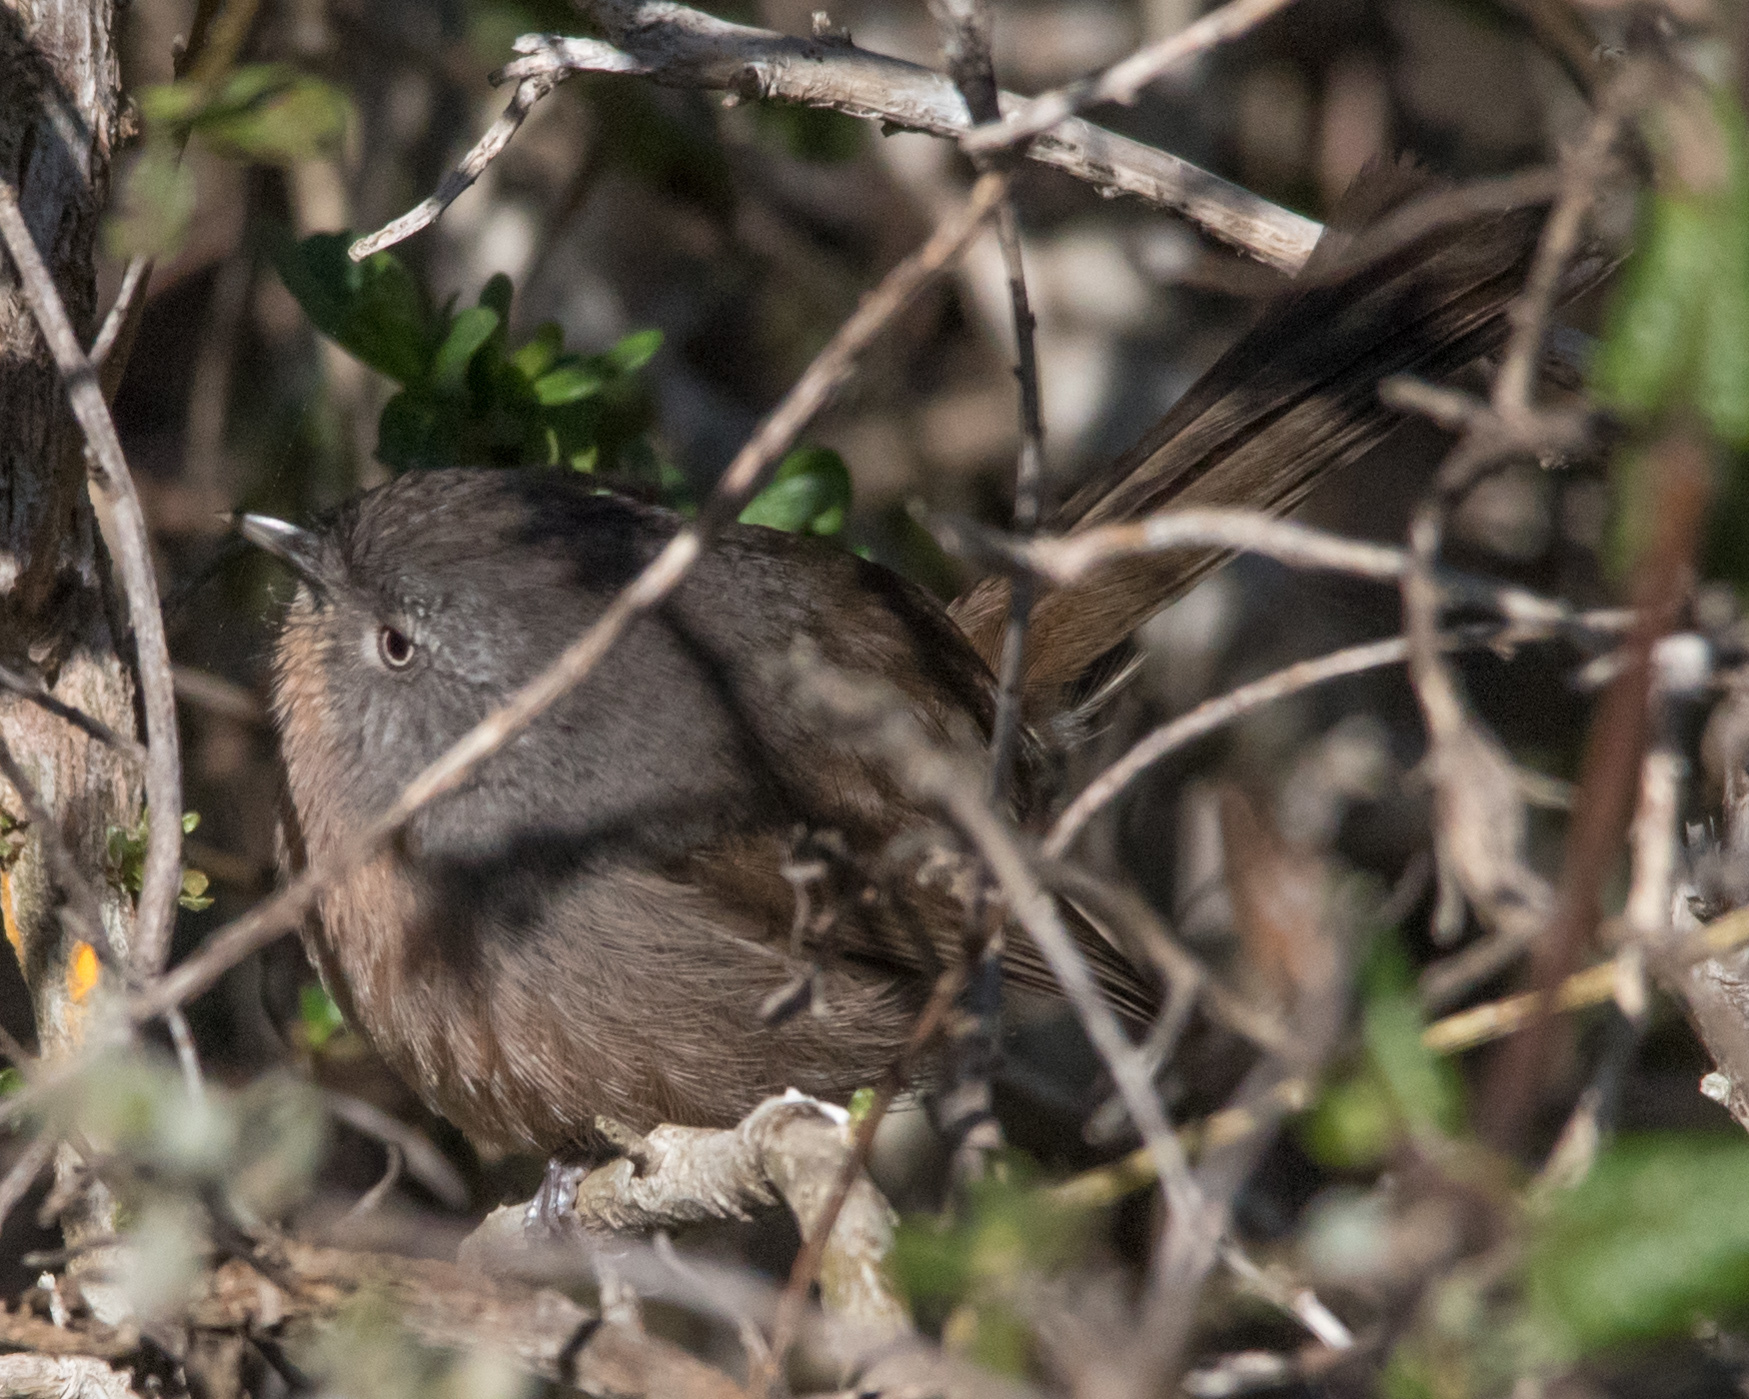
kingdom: Animalia
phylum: Chordata
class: Aves
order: Passeriformes
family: Sylviidae
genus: Chamaea
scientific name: Chamaea fasciata
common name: Wrentit
